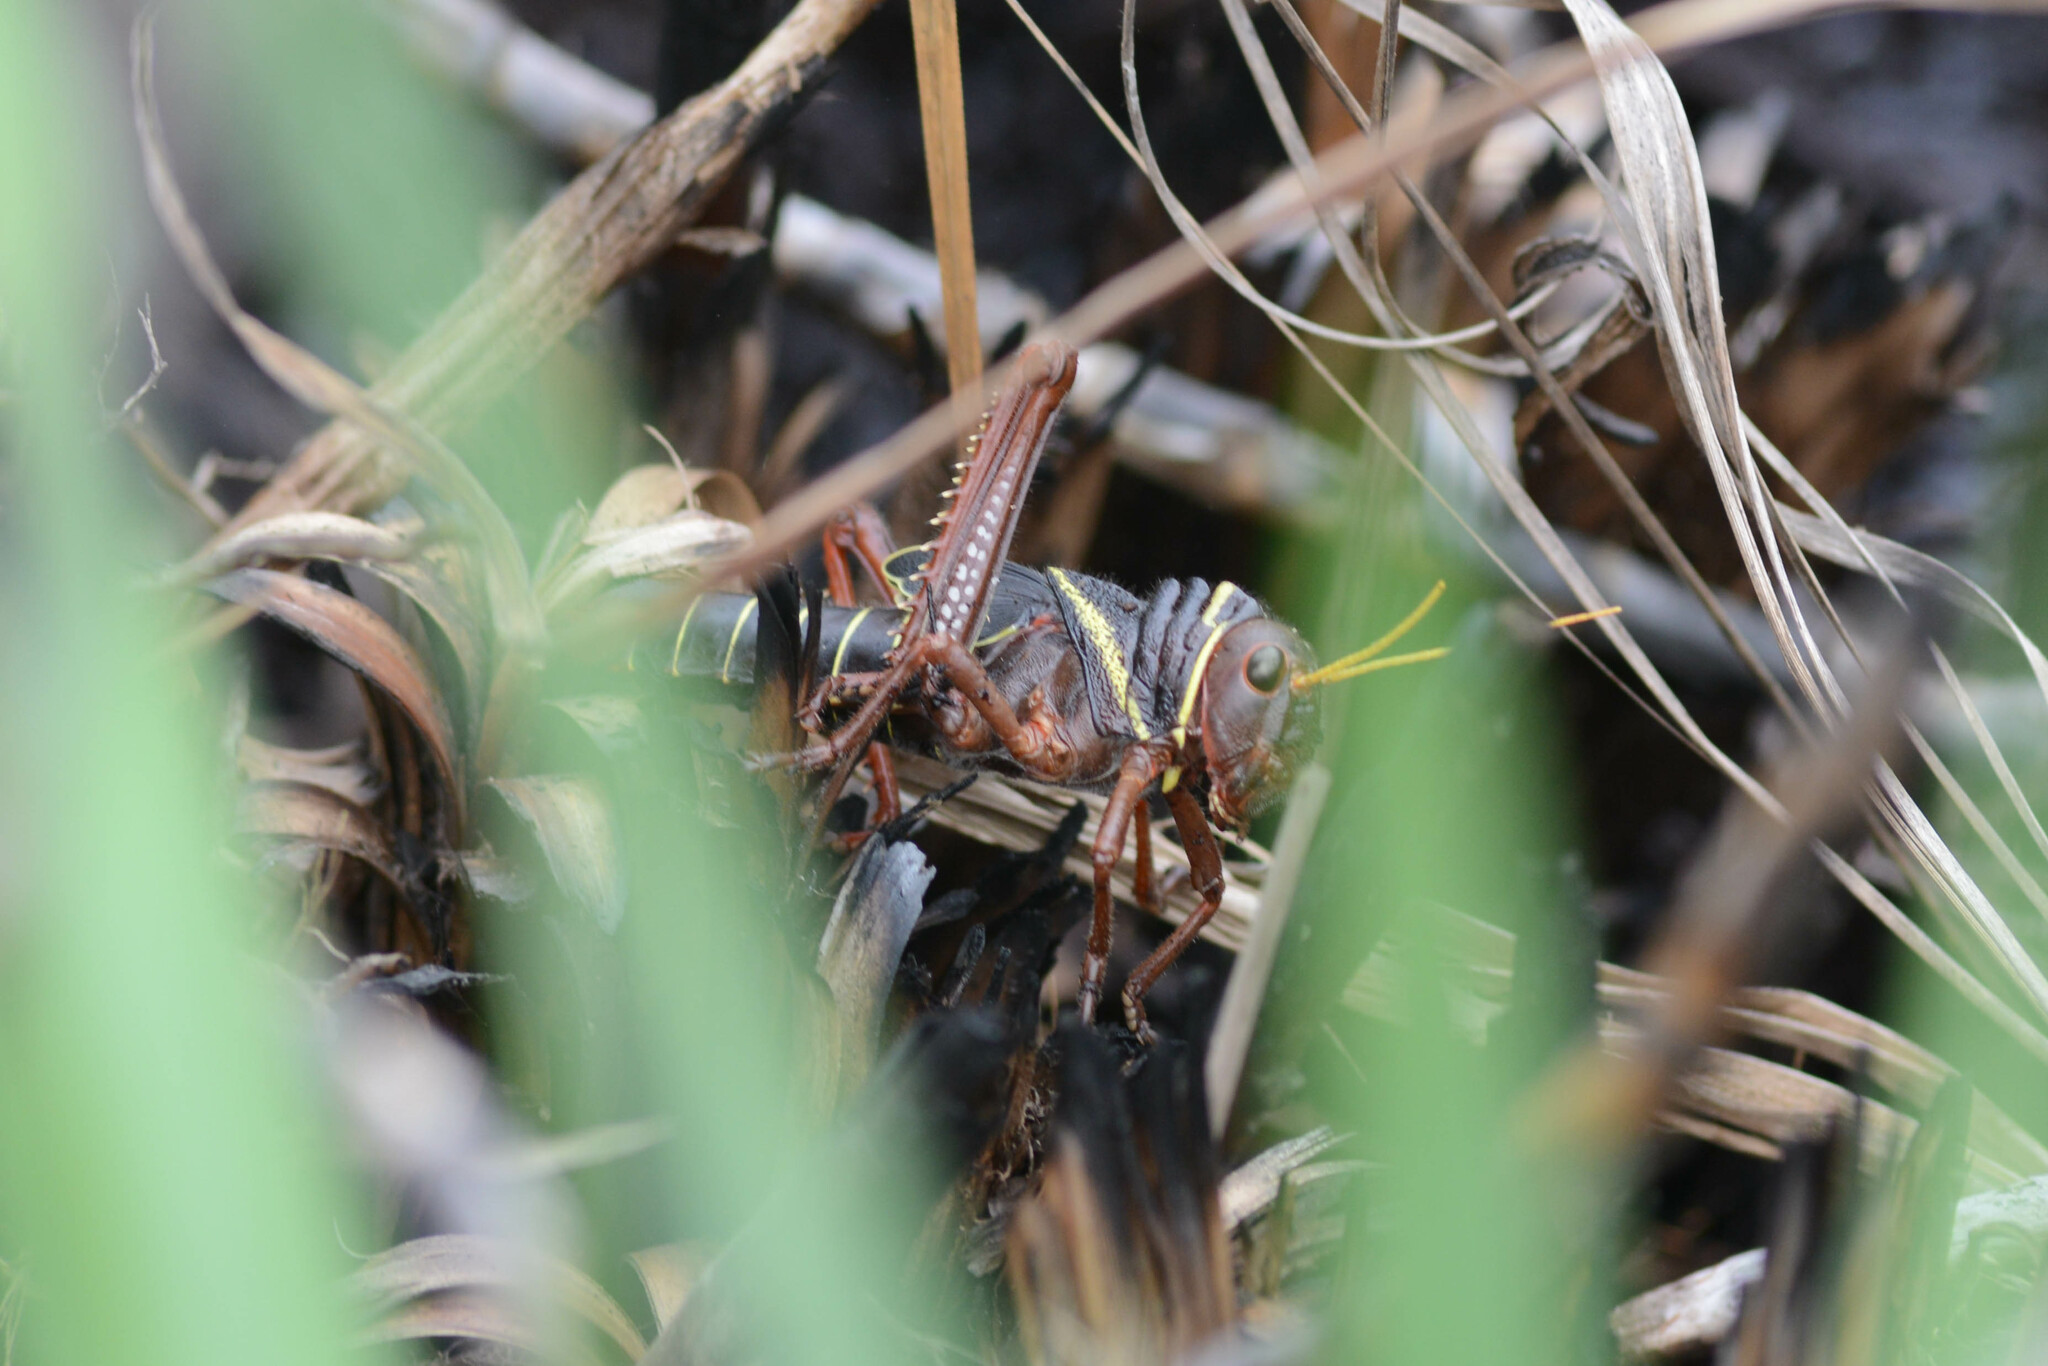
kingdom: Animalia
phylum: Arthropoda
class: Insecta
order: Orthoptera
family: Romaleidae
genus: Tropidacris
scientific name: Tropidacris collaris
